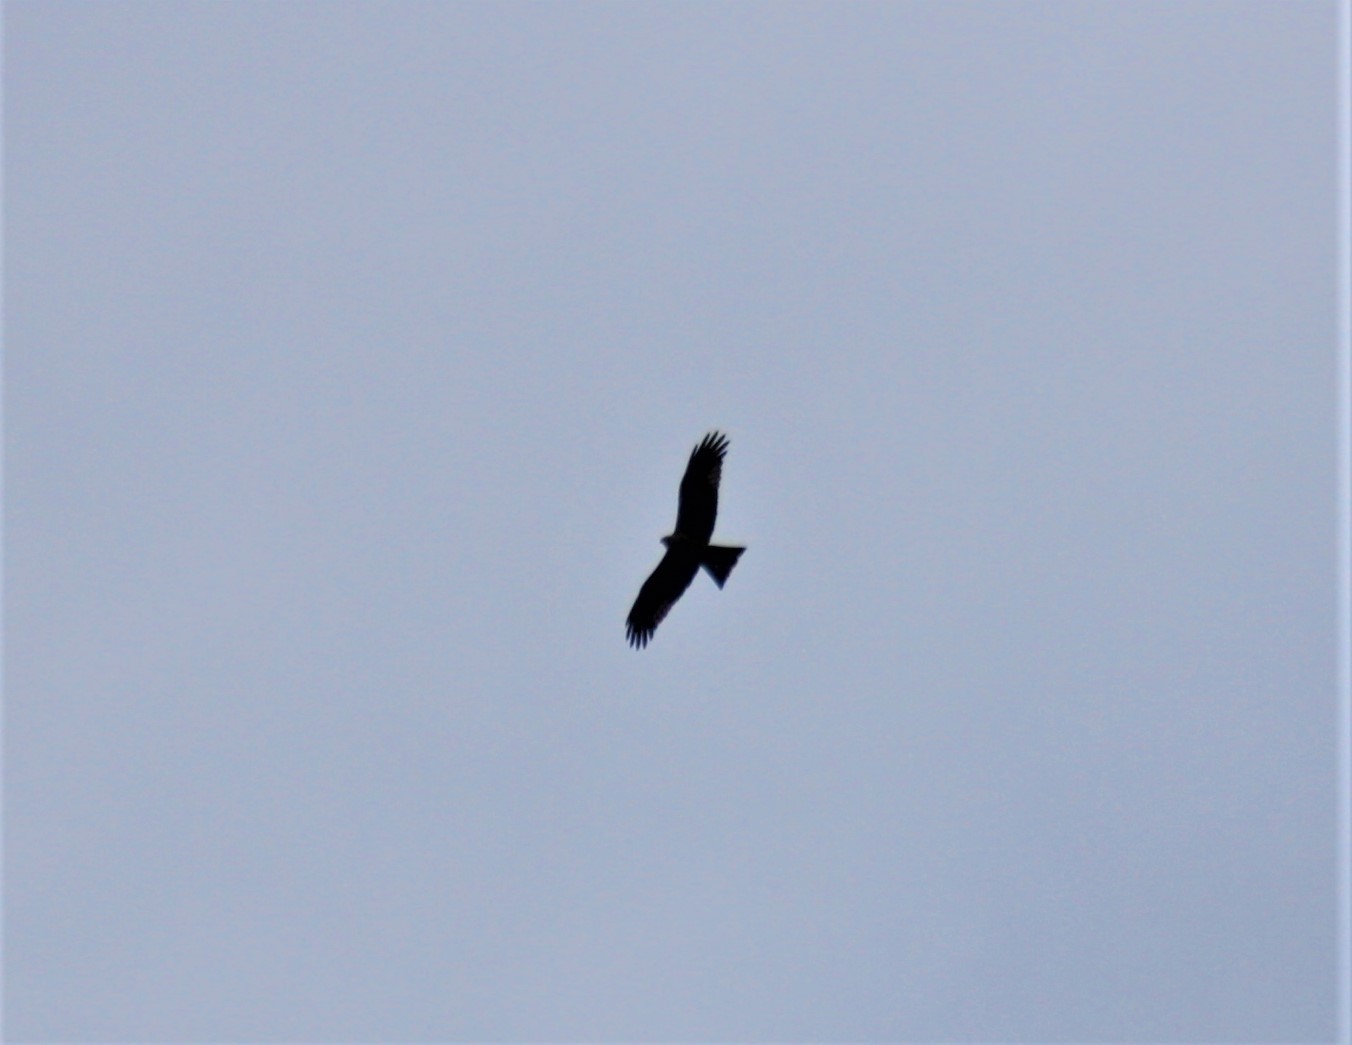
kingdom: Animalia
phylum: Chordata
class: Aves
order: Accipitriformes
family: Accipitridae
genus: Milvus
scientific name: Milvus migrans
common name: Black kite
